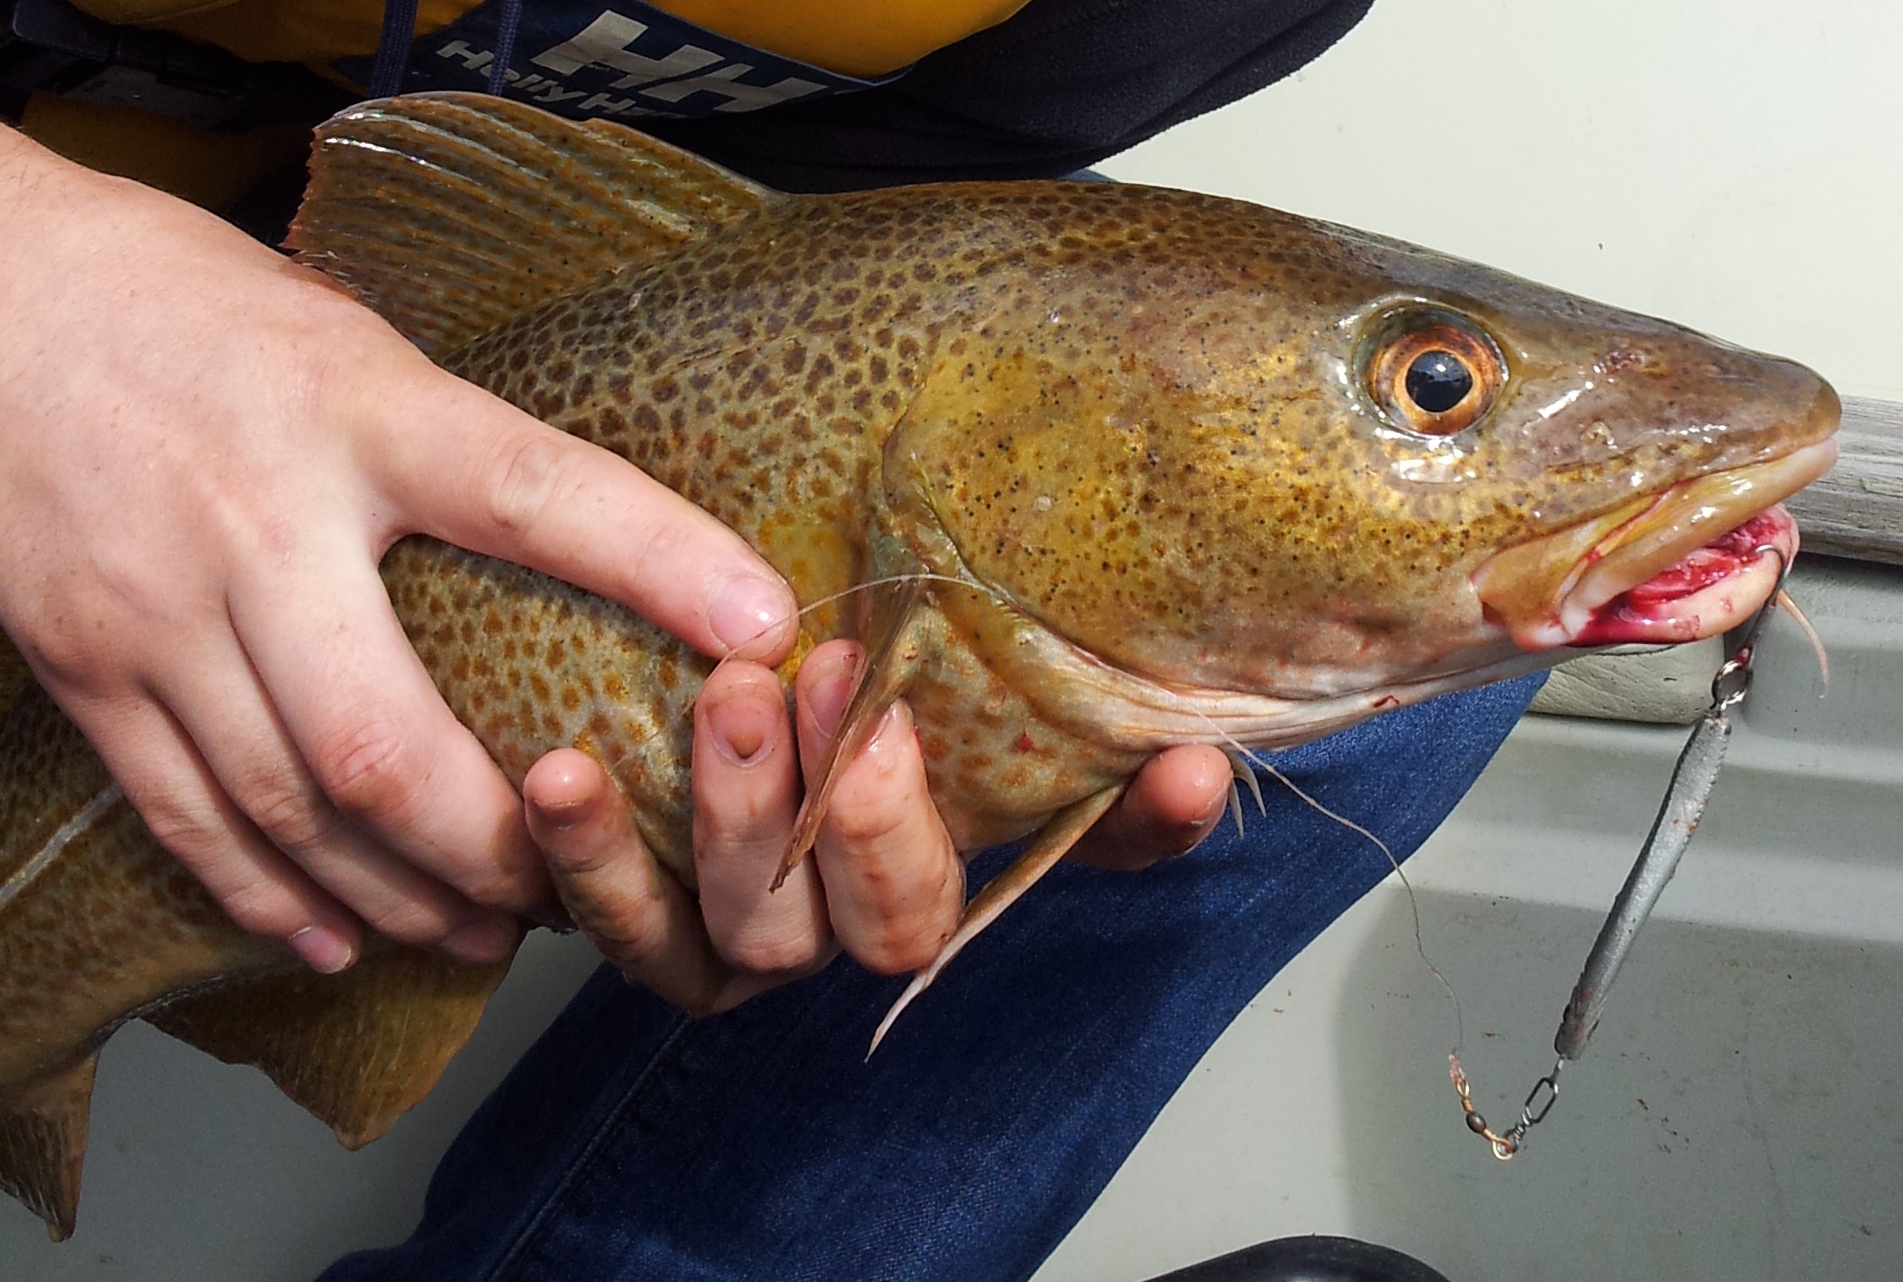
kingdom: Animalia
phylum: Chordata
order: Gadiformes
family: Gadidae
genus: Gadus
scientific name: Gadus morhua
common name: Atlantic cod
